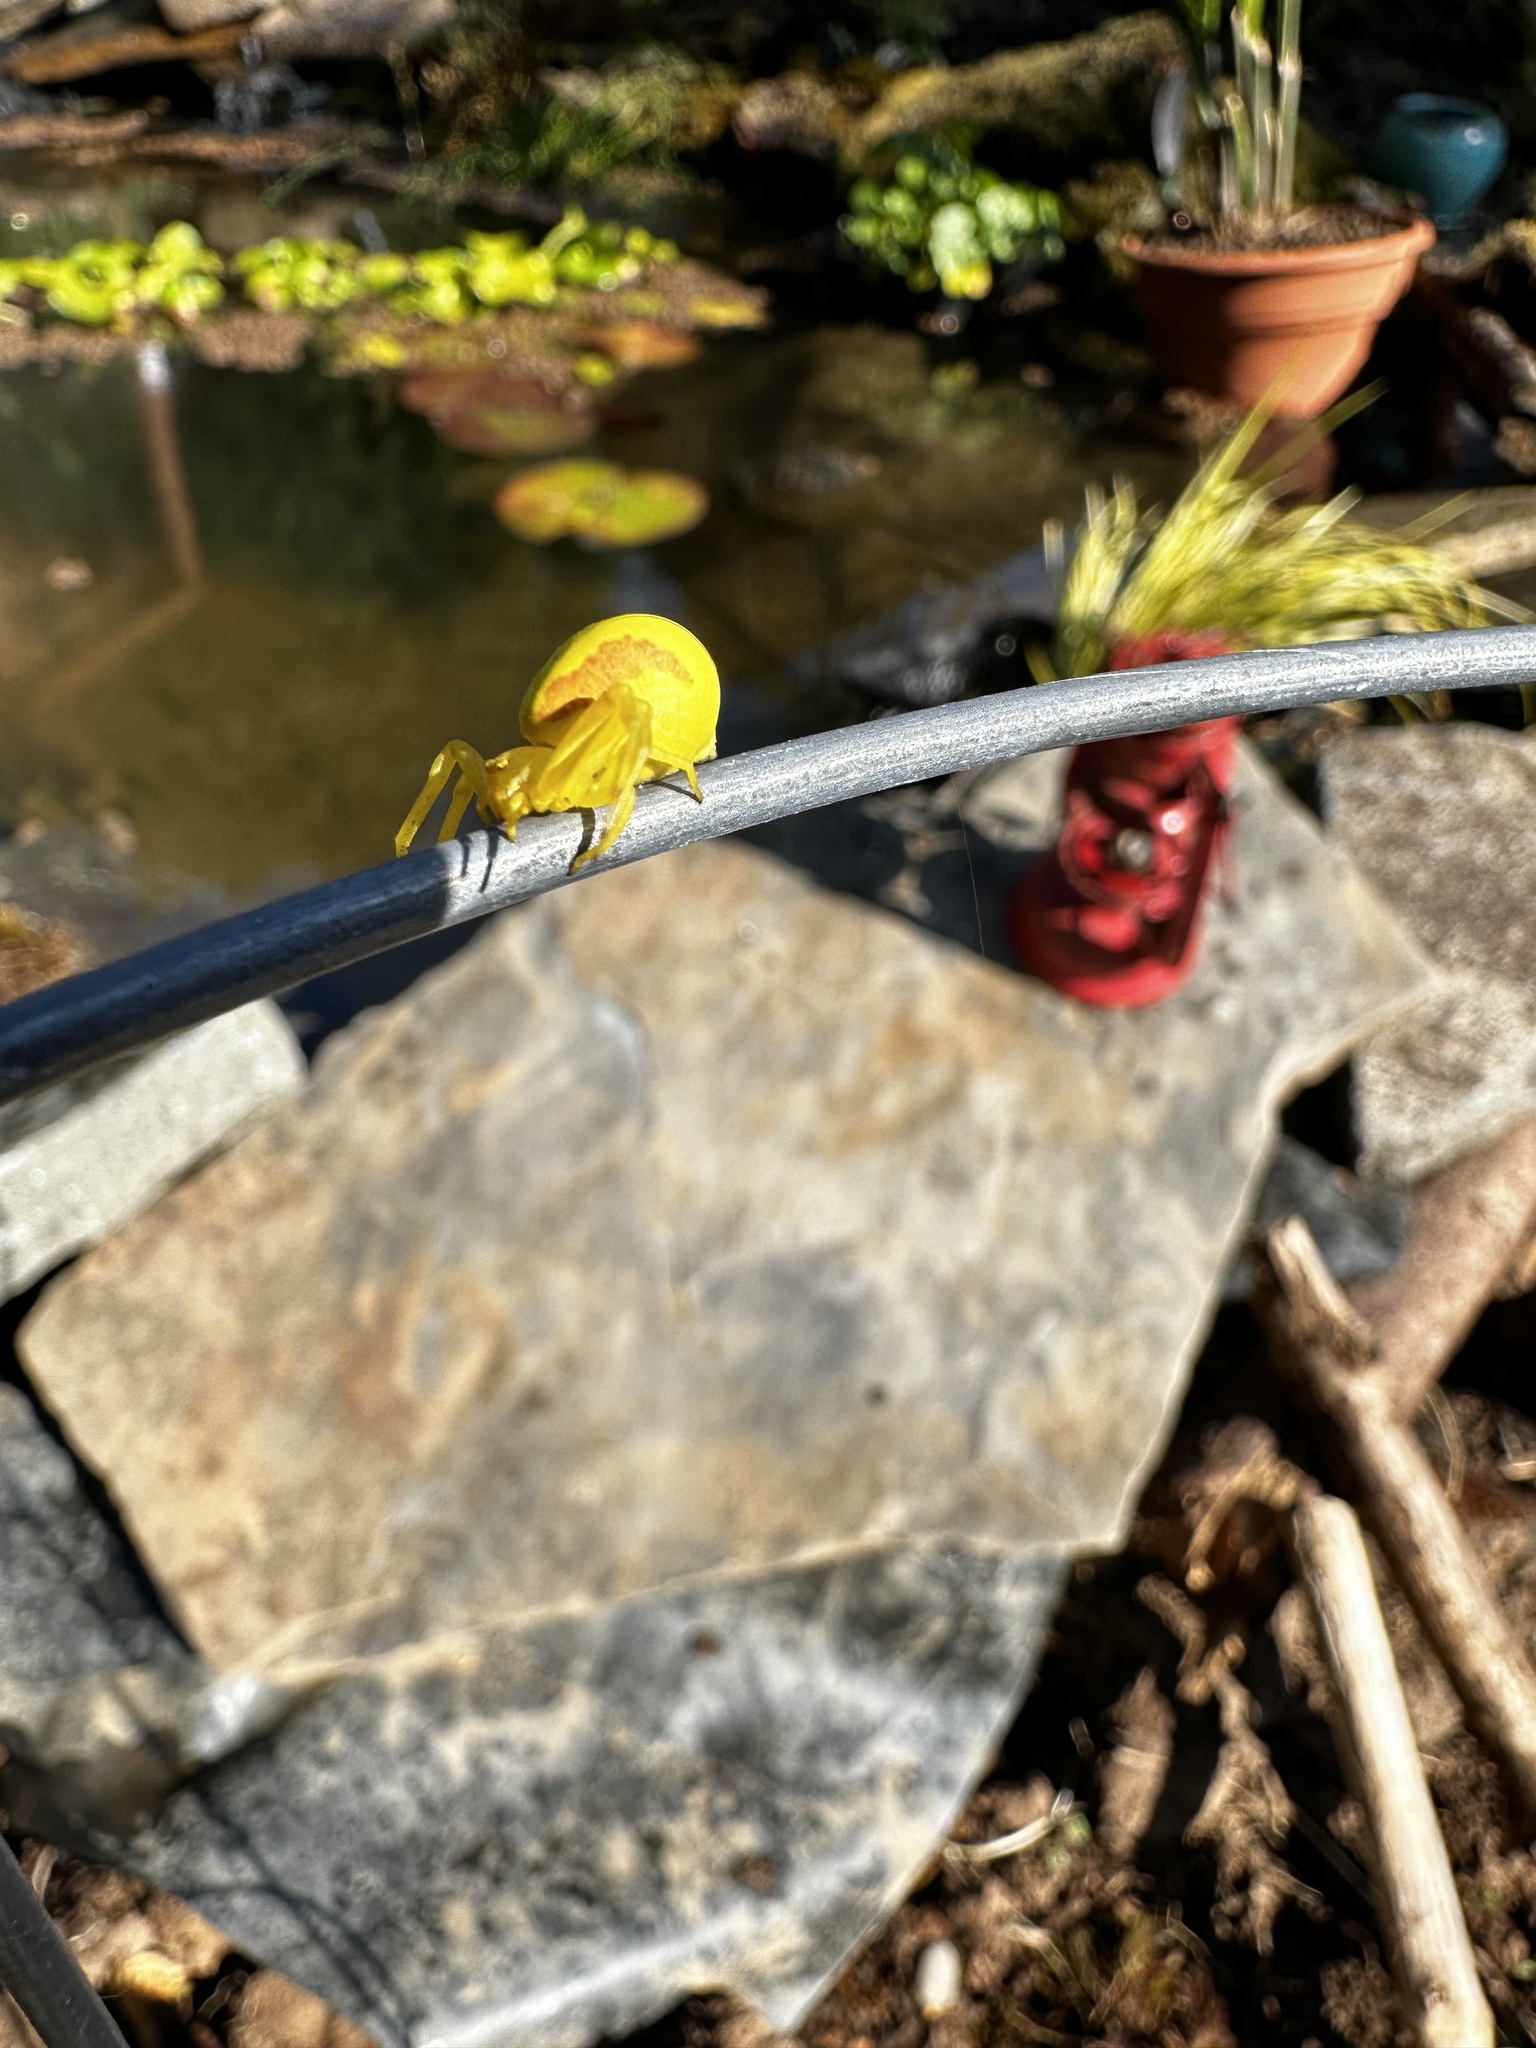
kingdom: Animalia
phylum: Arthropoda
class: Arachnida
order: Araneae
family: Thomisidae
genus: Misumena
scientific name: Misumena vatia
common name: Goldenrod crab spider
